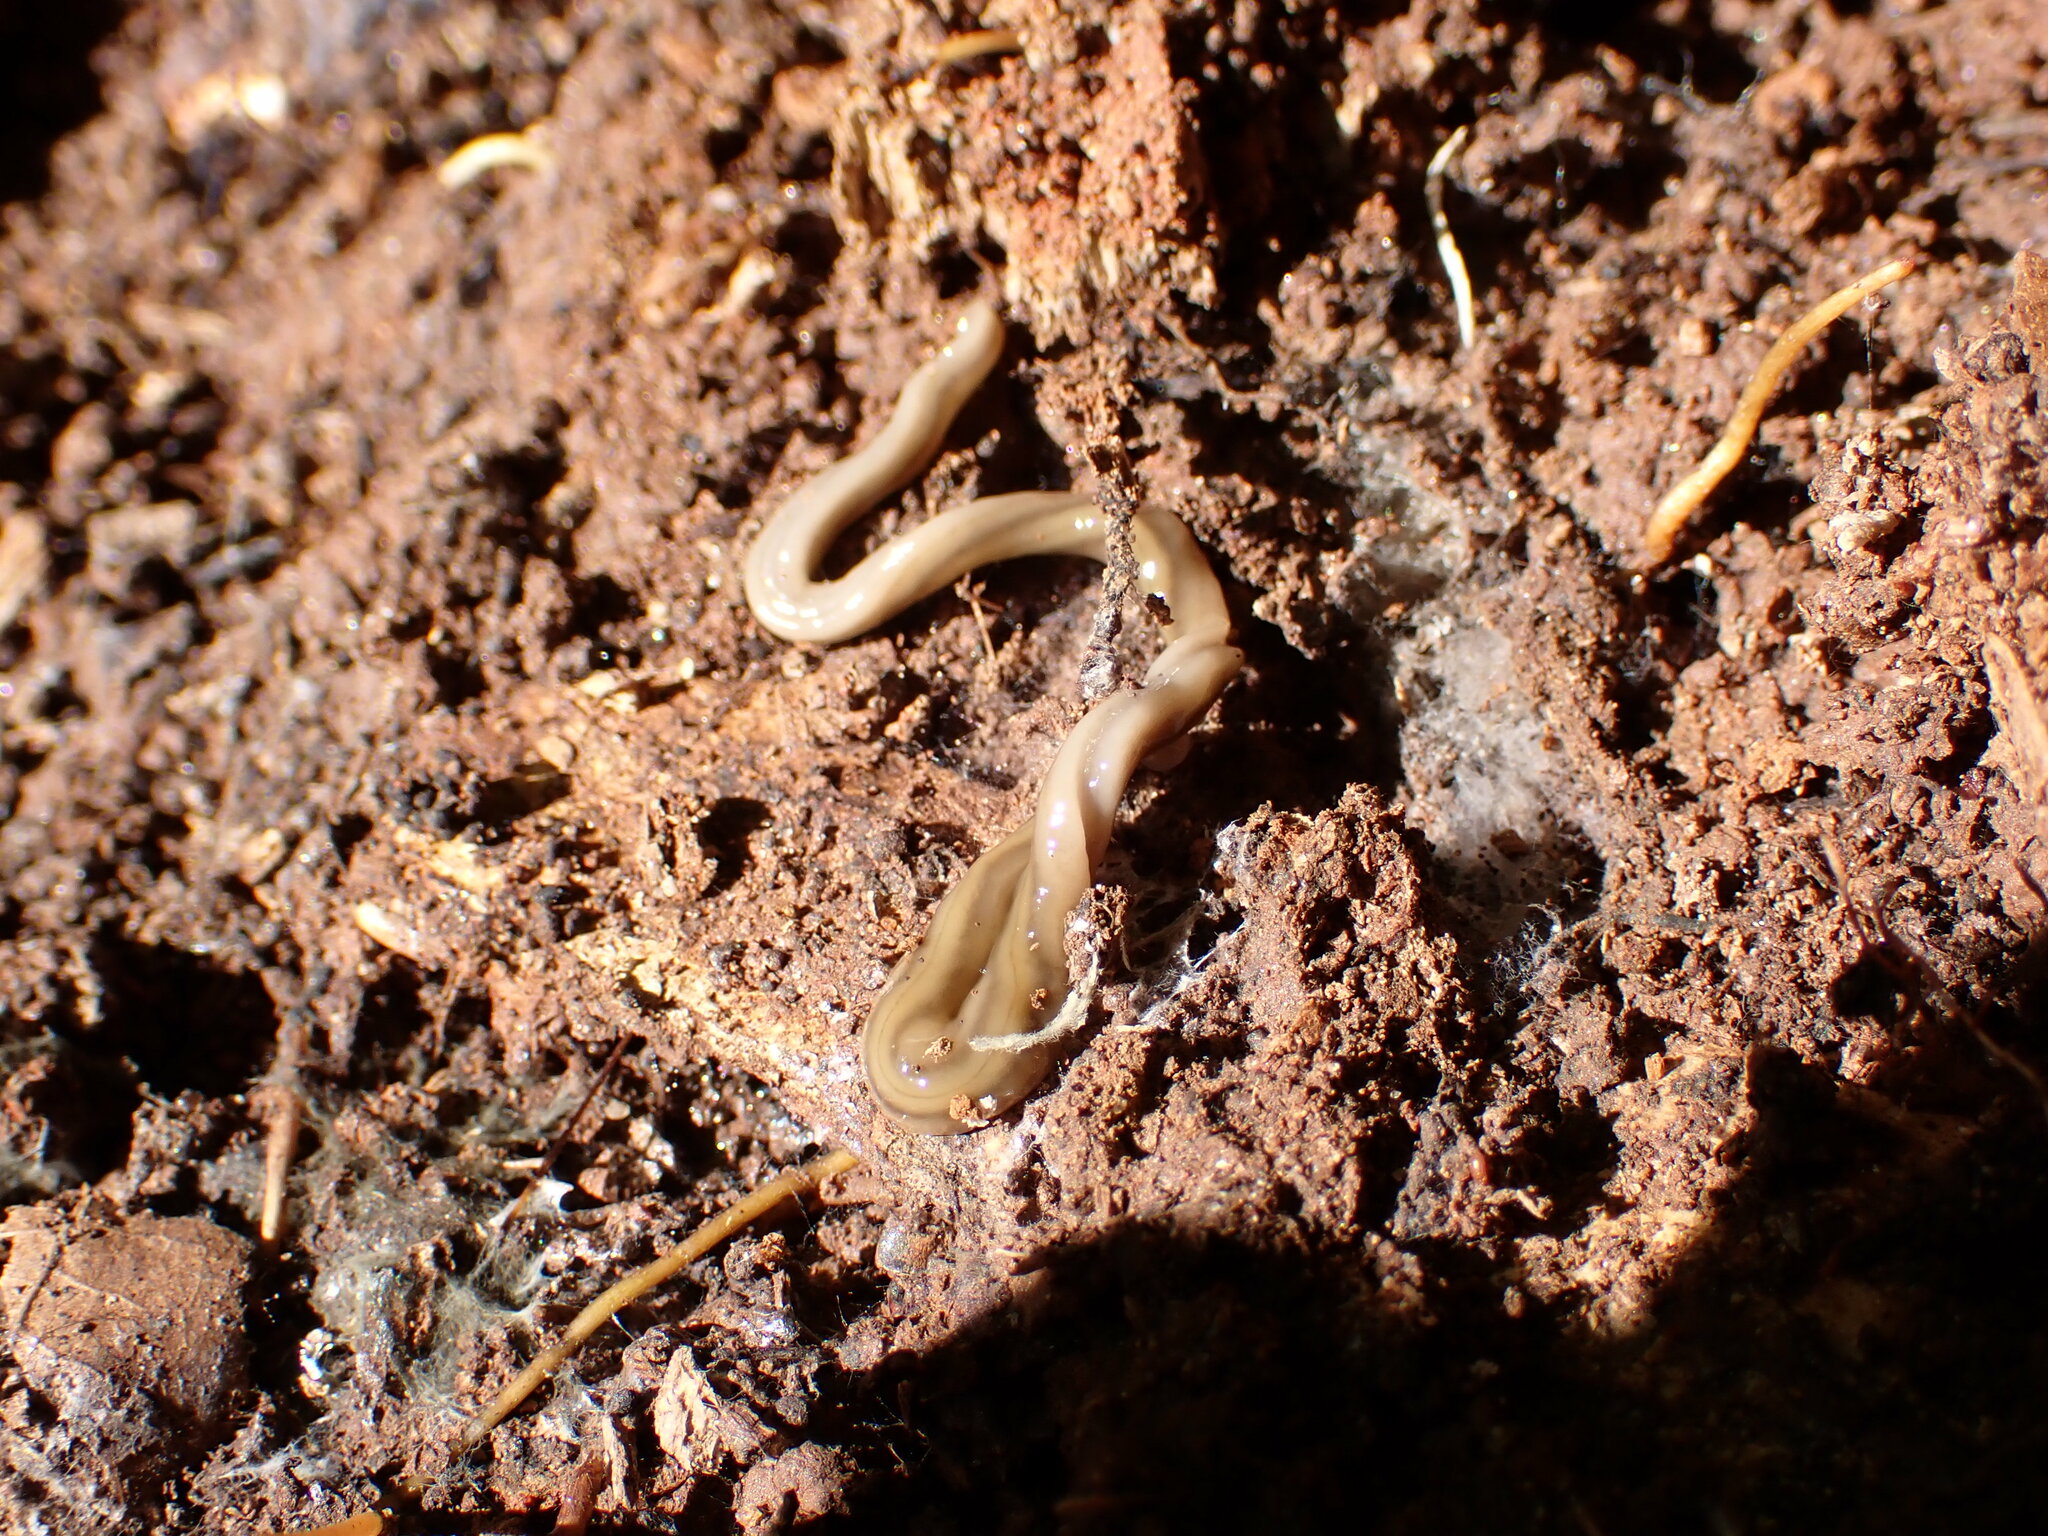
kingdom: Animalia
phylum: Platyhelminthes
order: Tricladida
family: Geoplanidae
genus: Bipalium
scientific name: Bipalium kewense
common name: Hammerhead flatworm
